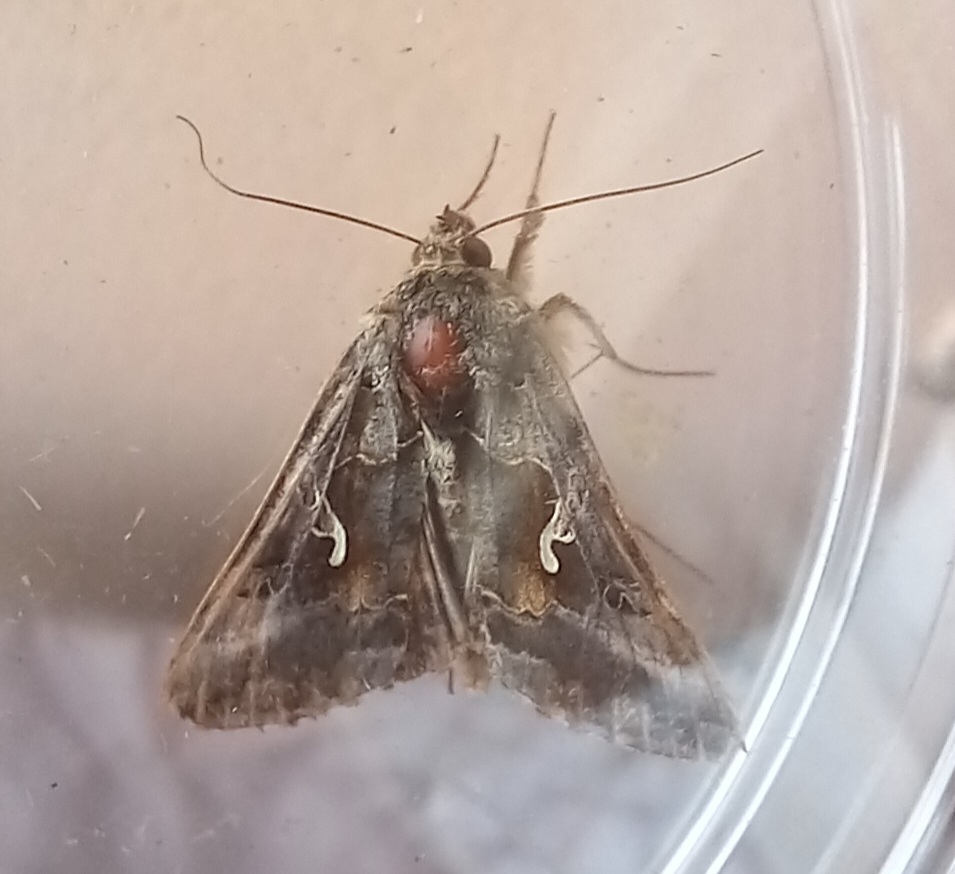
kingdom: Animalia
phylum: Arthropoda
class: Insecta
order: Lepidoptera
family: Noctuidae
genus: Autographa
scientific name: Autographa gamma
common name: Silver y
